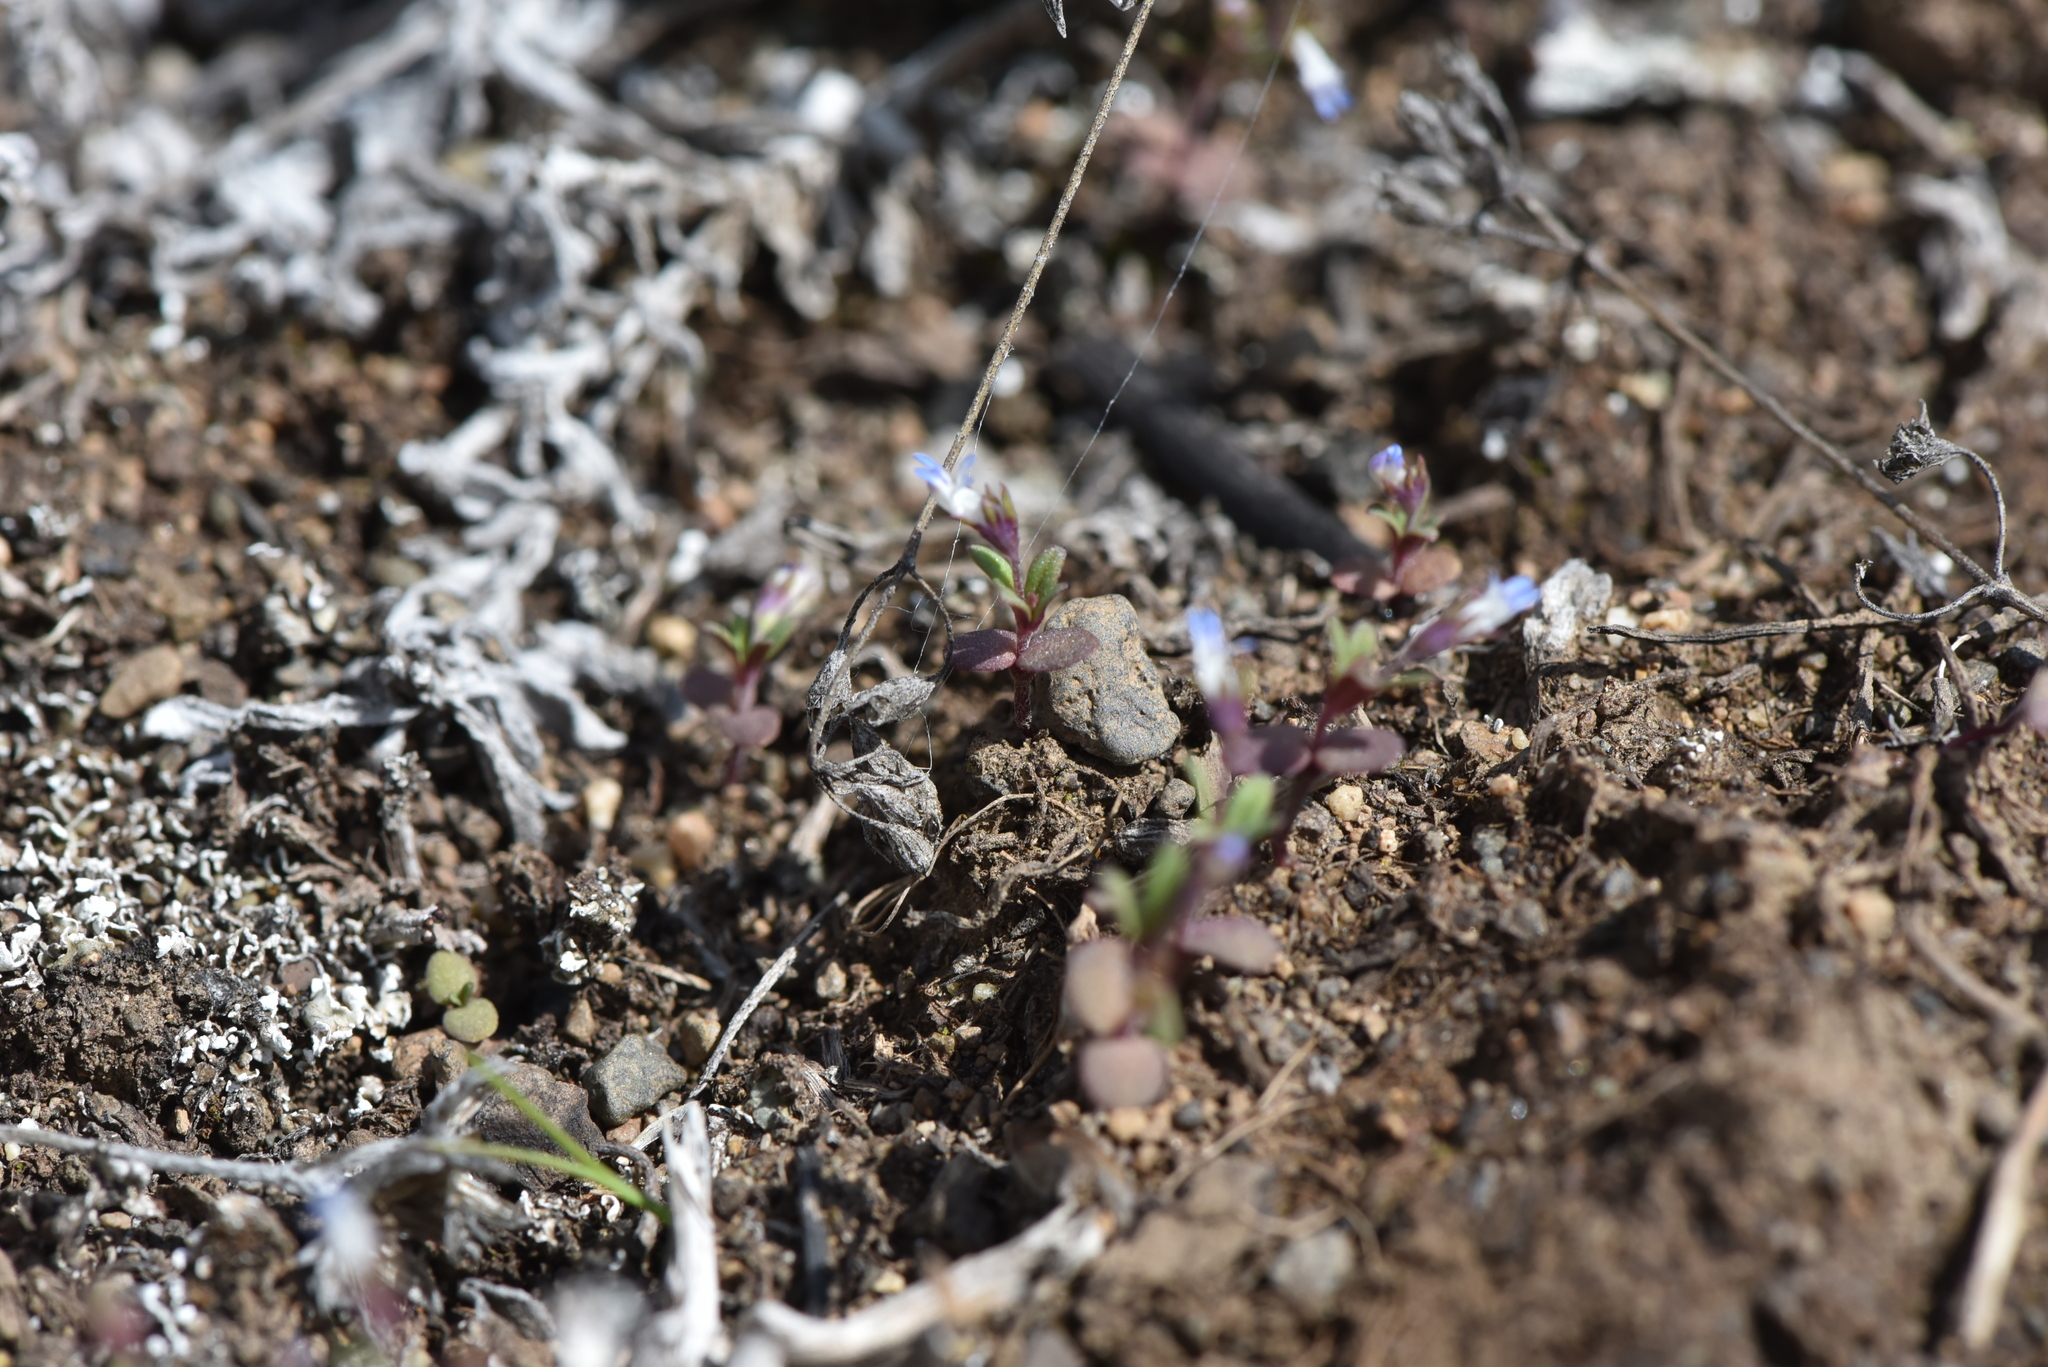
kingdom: Plantae
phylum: Tracheophyta
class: Magnoliopsida
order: Lamiales
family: Plantaginaceae
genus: Collinsia
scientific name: Collinsia parviflora
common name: Blue-lips
